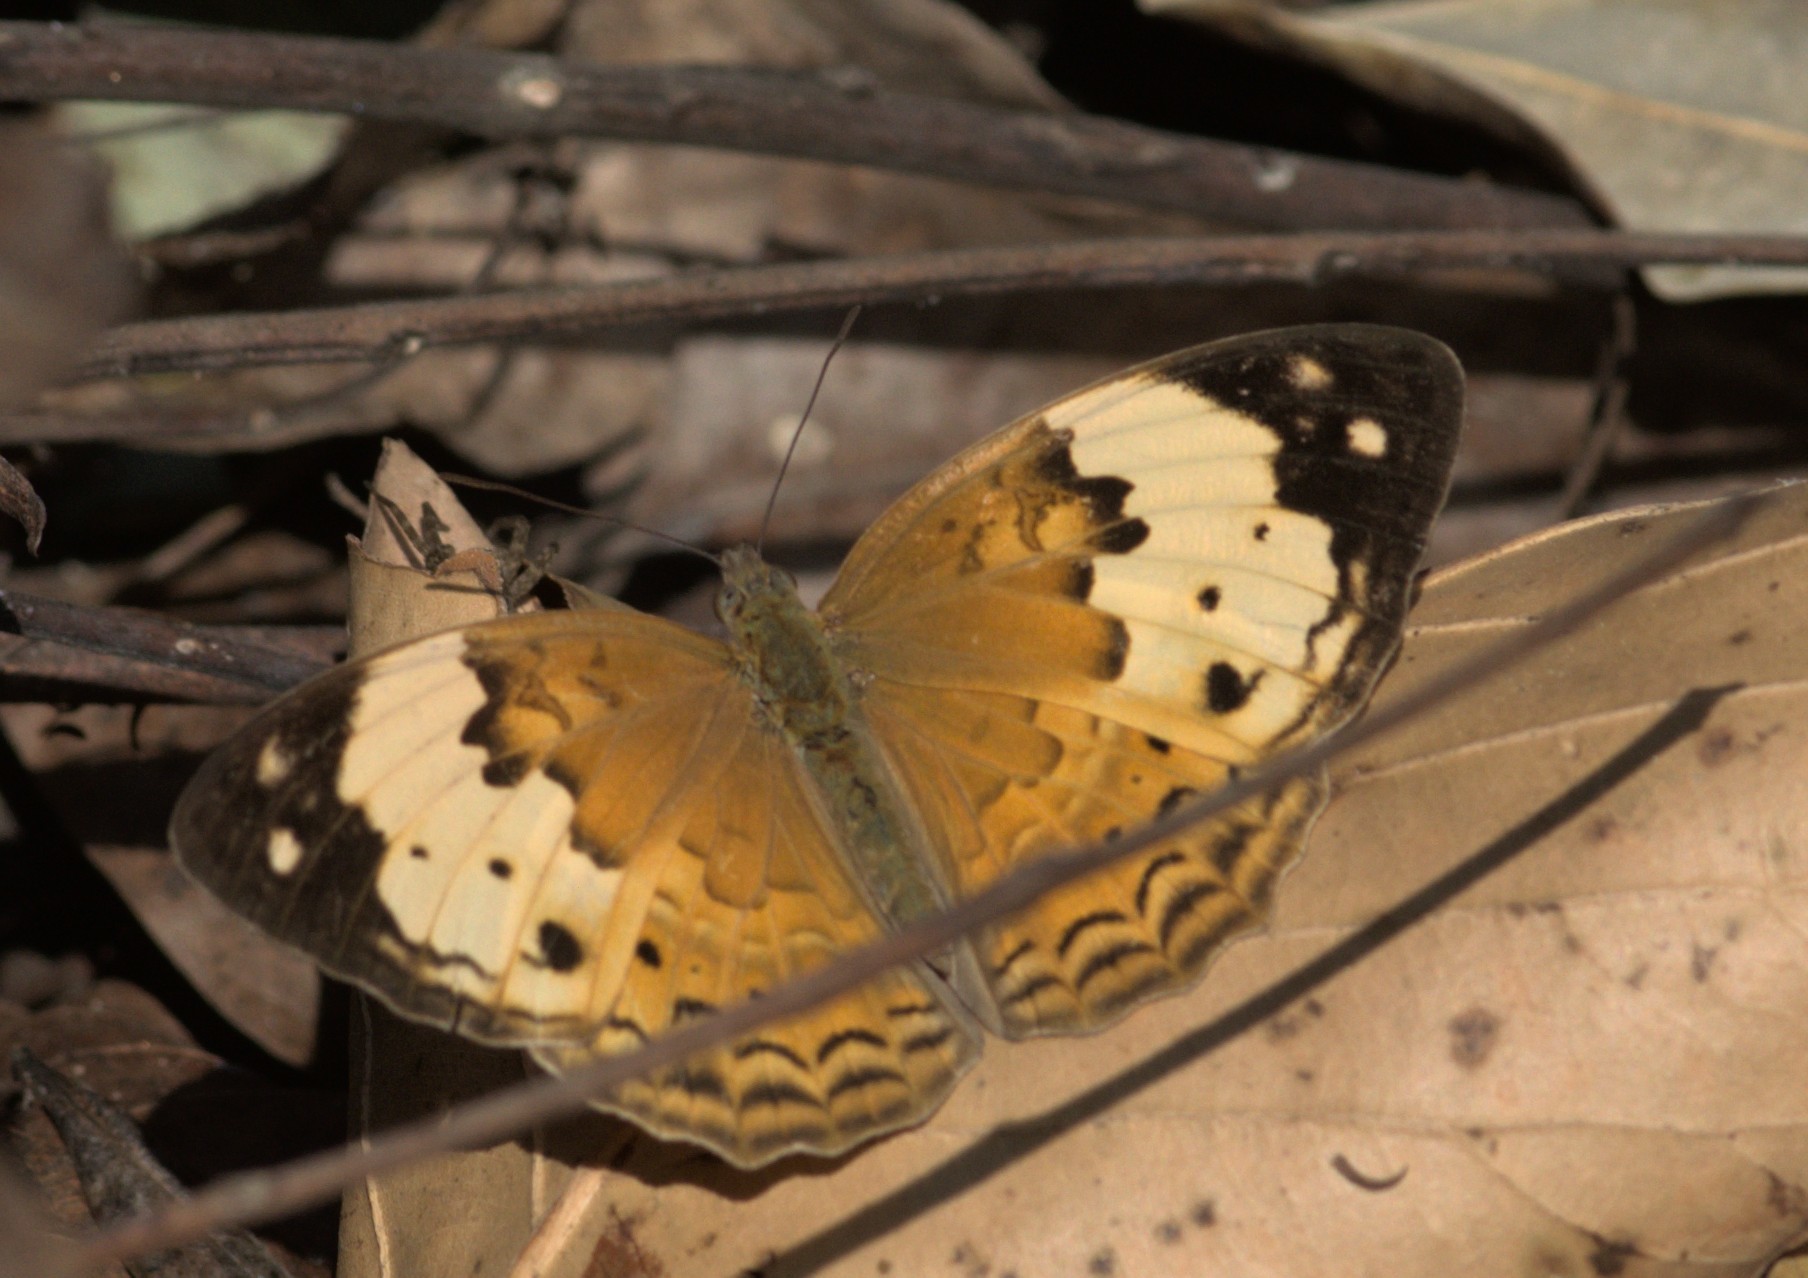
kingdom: Animalia
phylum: Arthropoda
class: Insecta
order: Lepidoptera
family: Nymphalidae
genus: Cupha
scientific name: Cupha erymanthis
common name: Rustic
